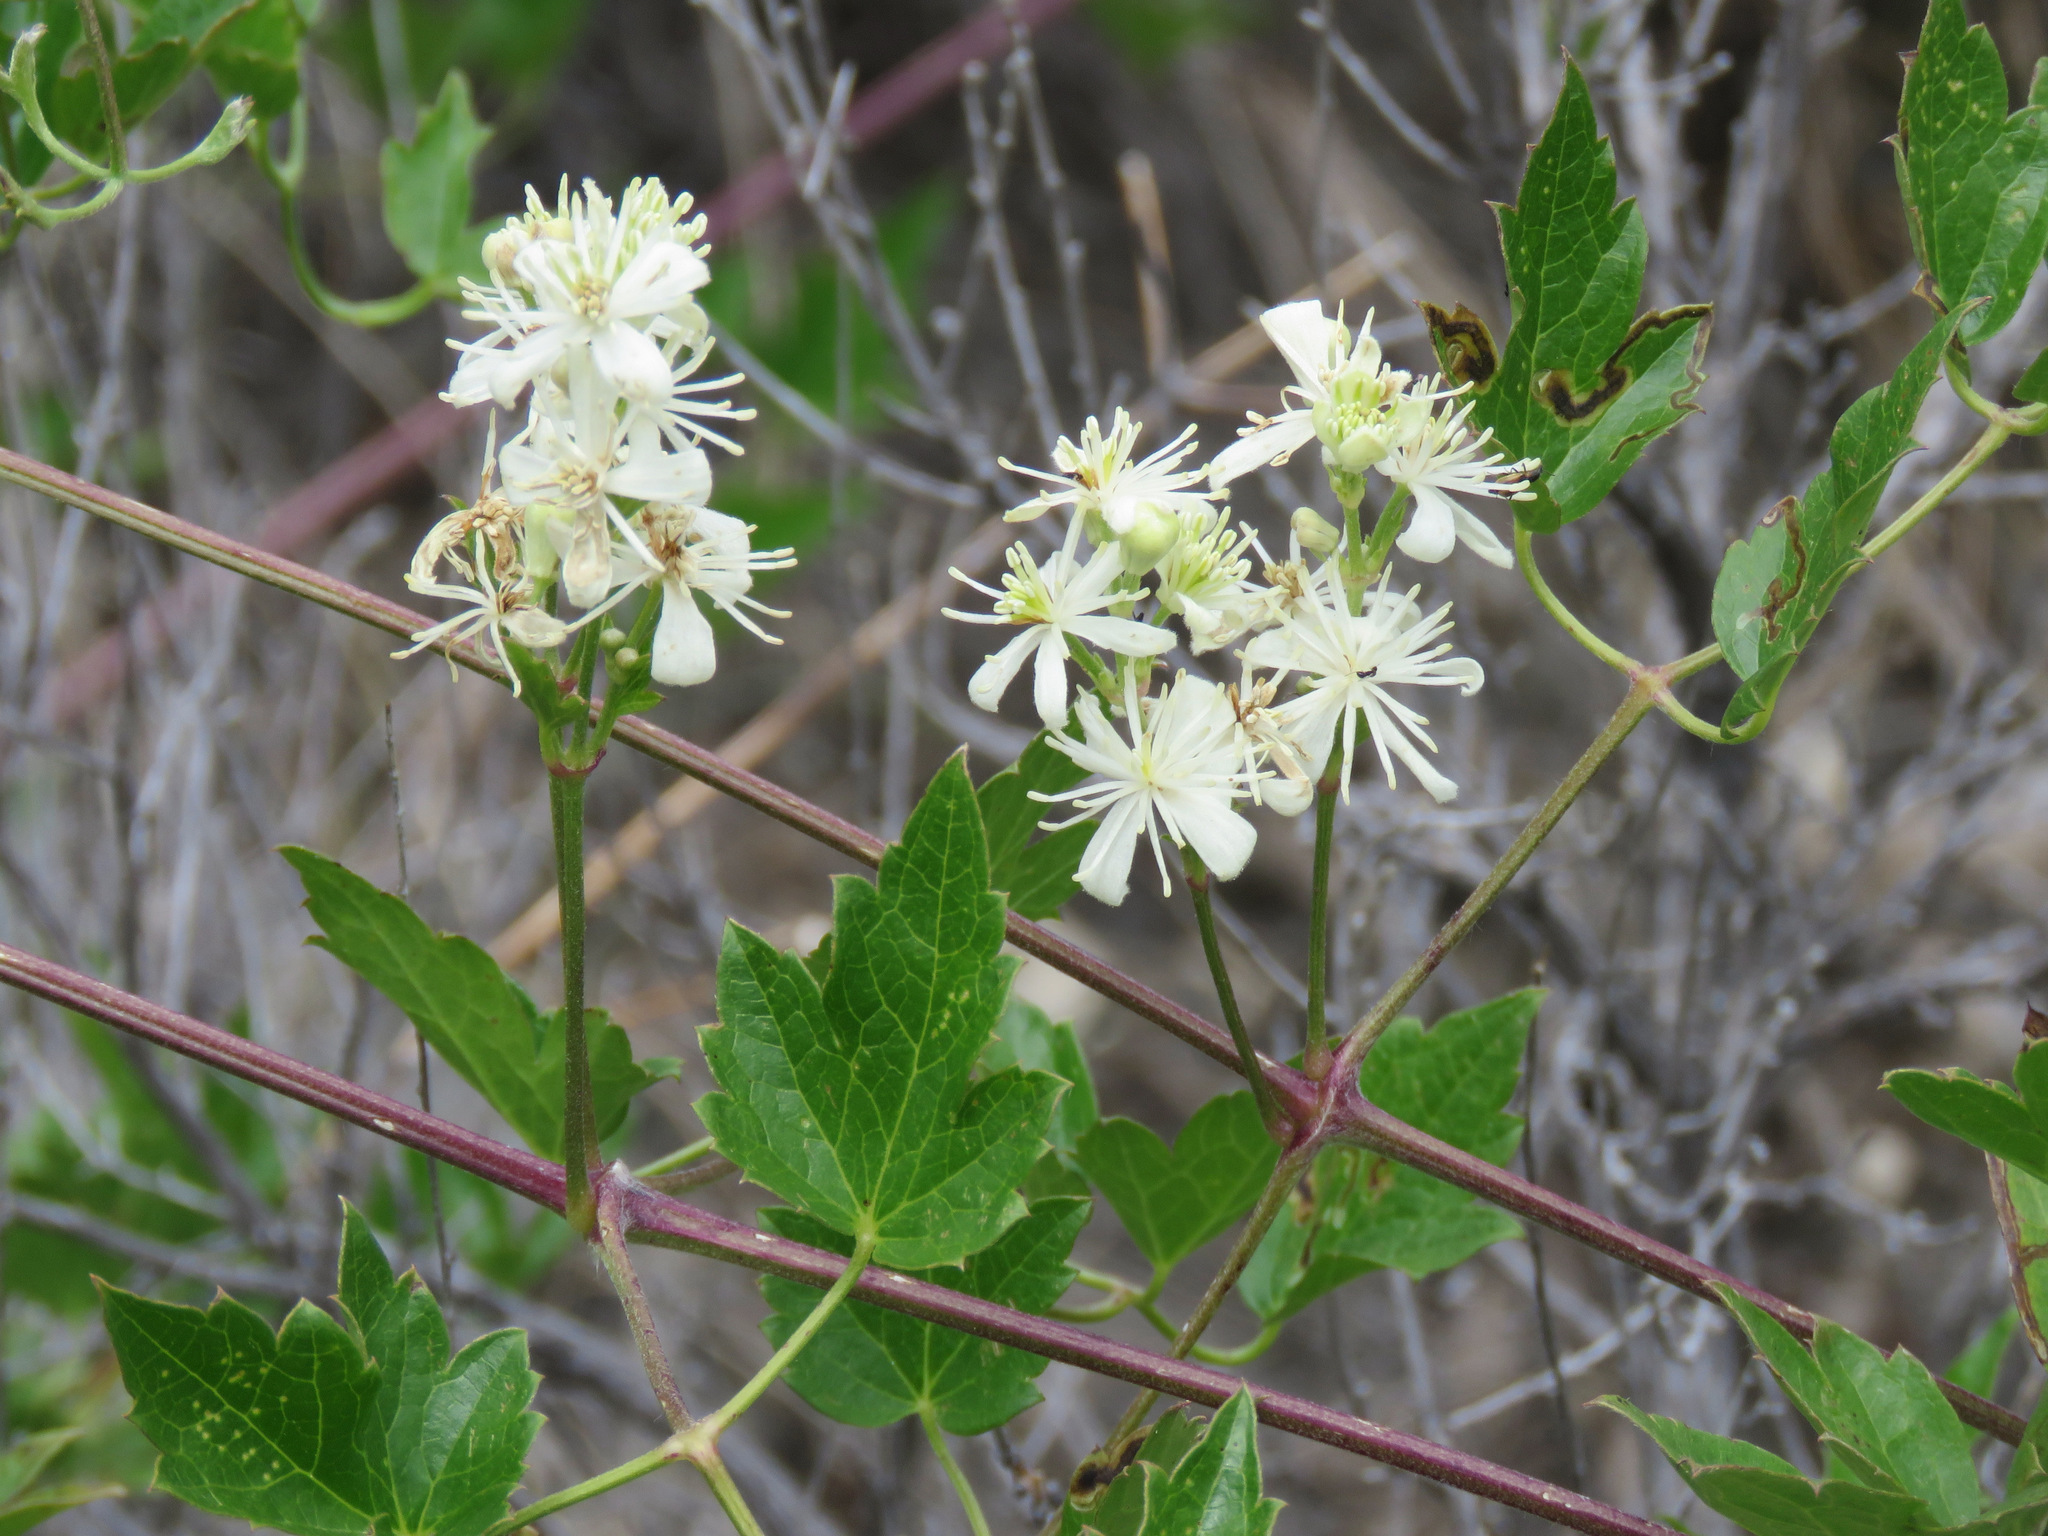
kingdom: Plantae
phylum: Tracheophyta
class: Magnoliopsida
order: Ranunculales
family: Ranunculaceae
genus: Clematis
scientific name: Clematis ligusticifolia
